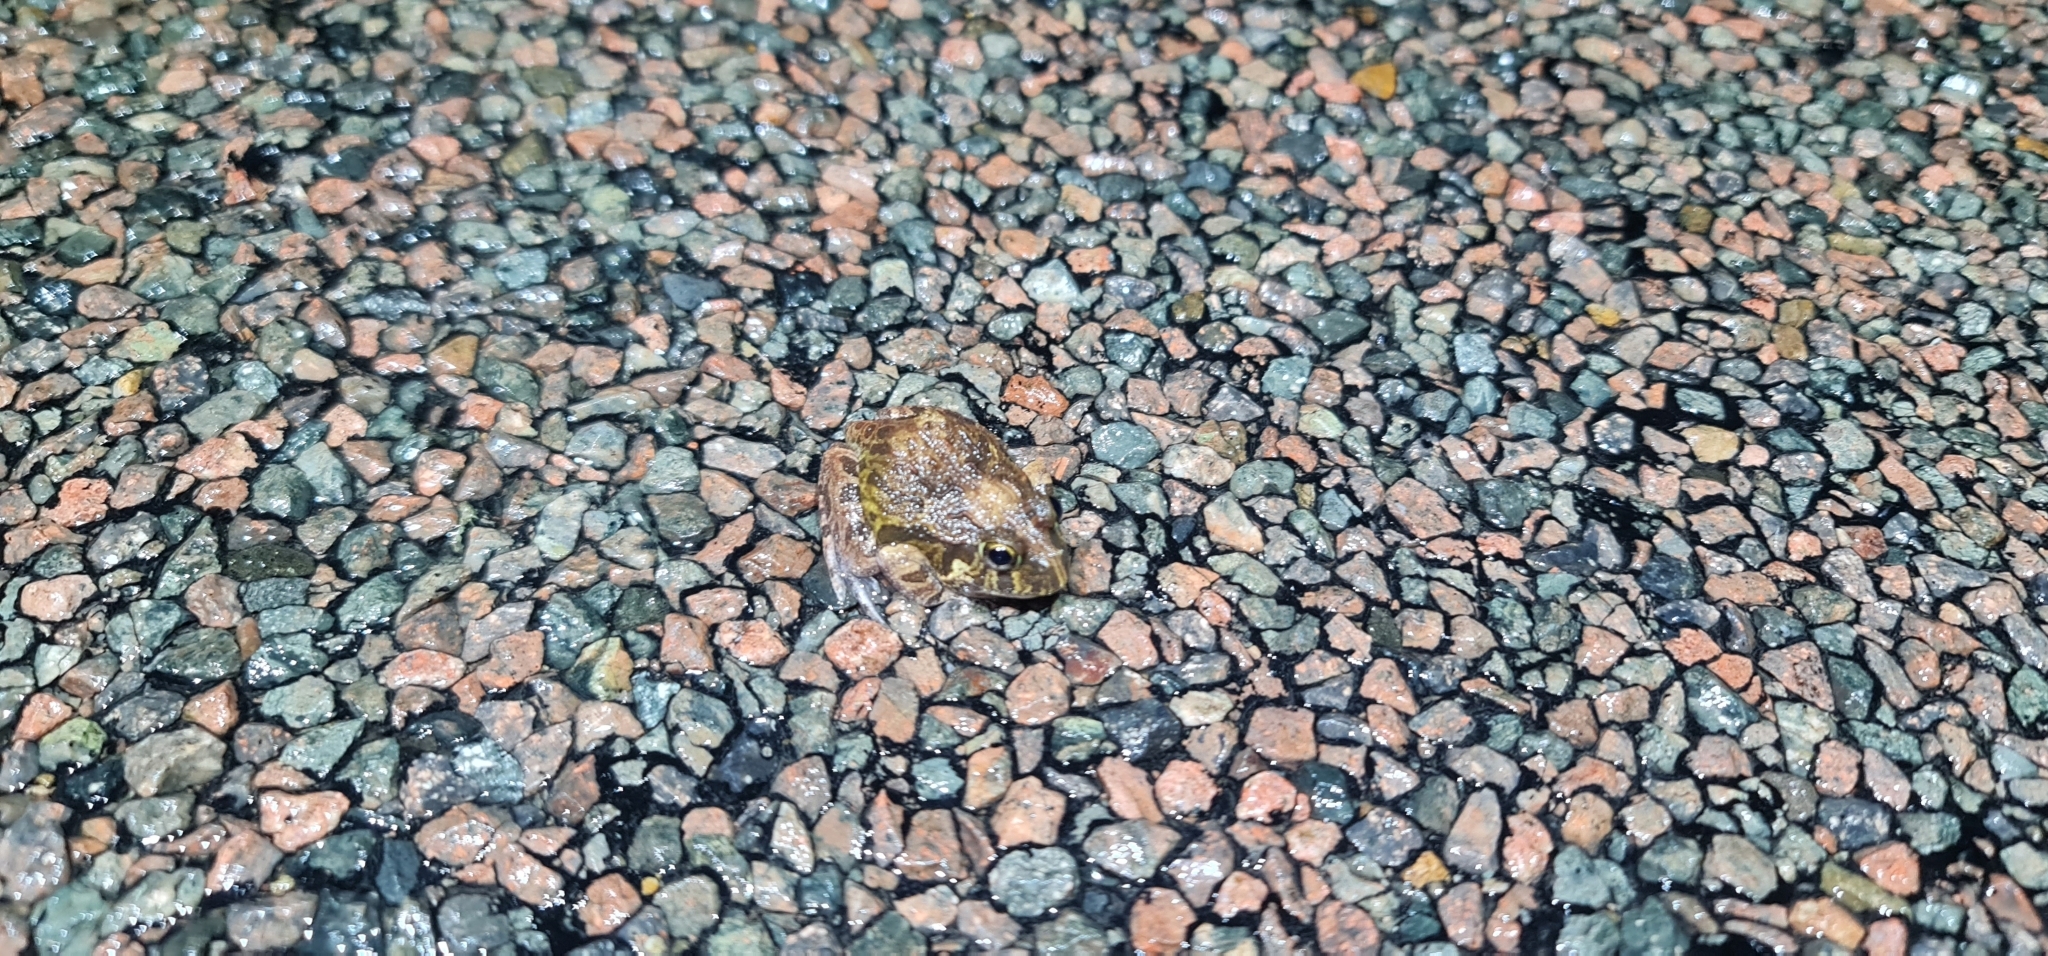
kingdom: Animalia
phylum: Chordata
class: Amphibia
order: Anura
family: Limnodynastidae
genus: Platyplectrum
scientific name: Platyplectrum ornatum
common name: Ornate burrowing frog
